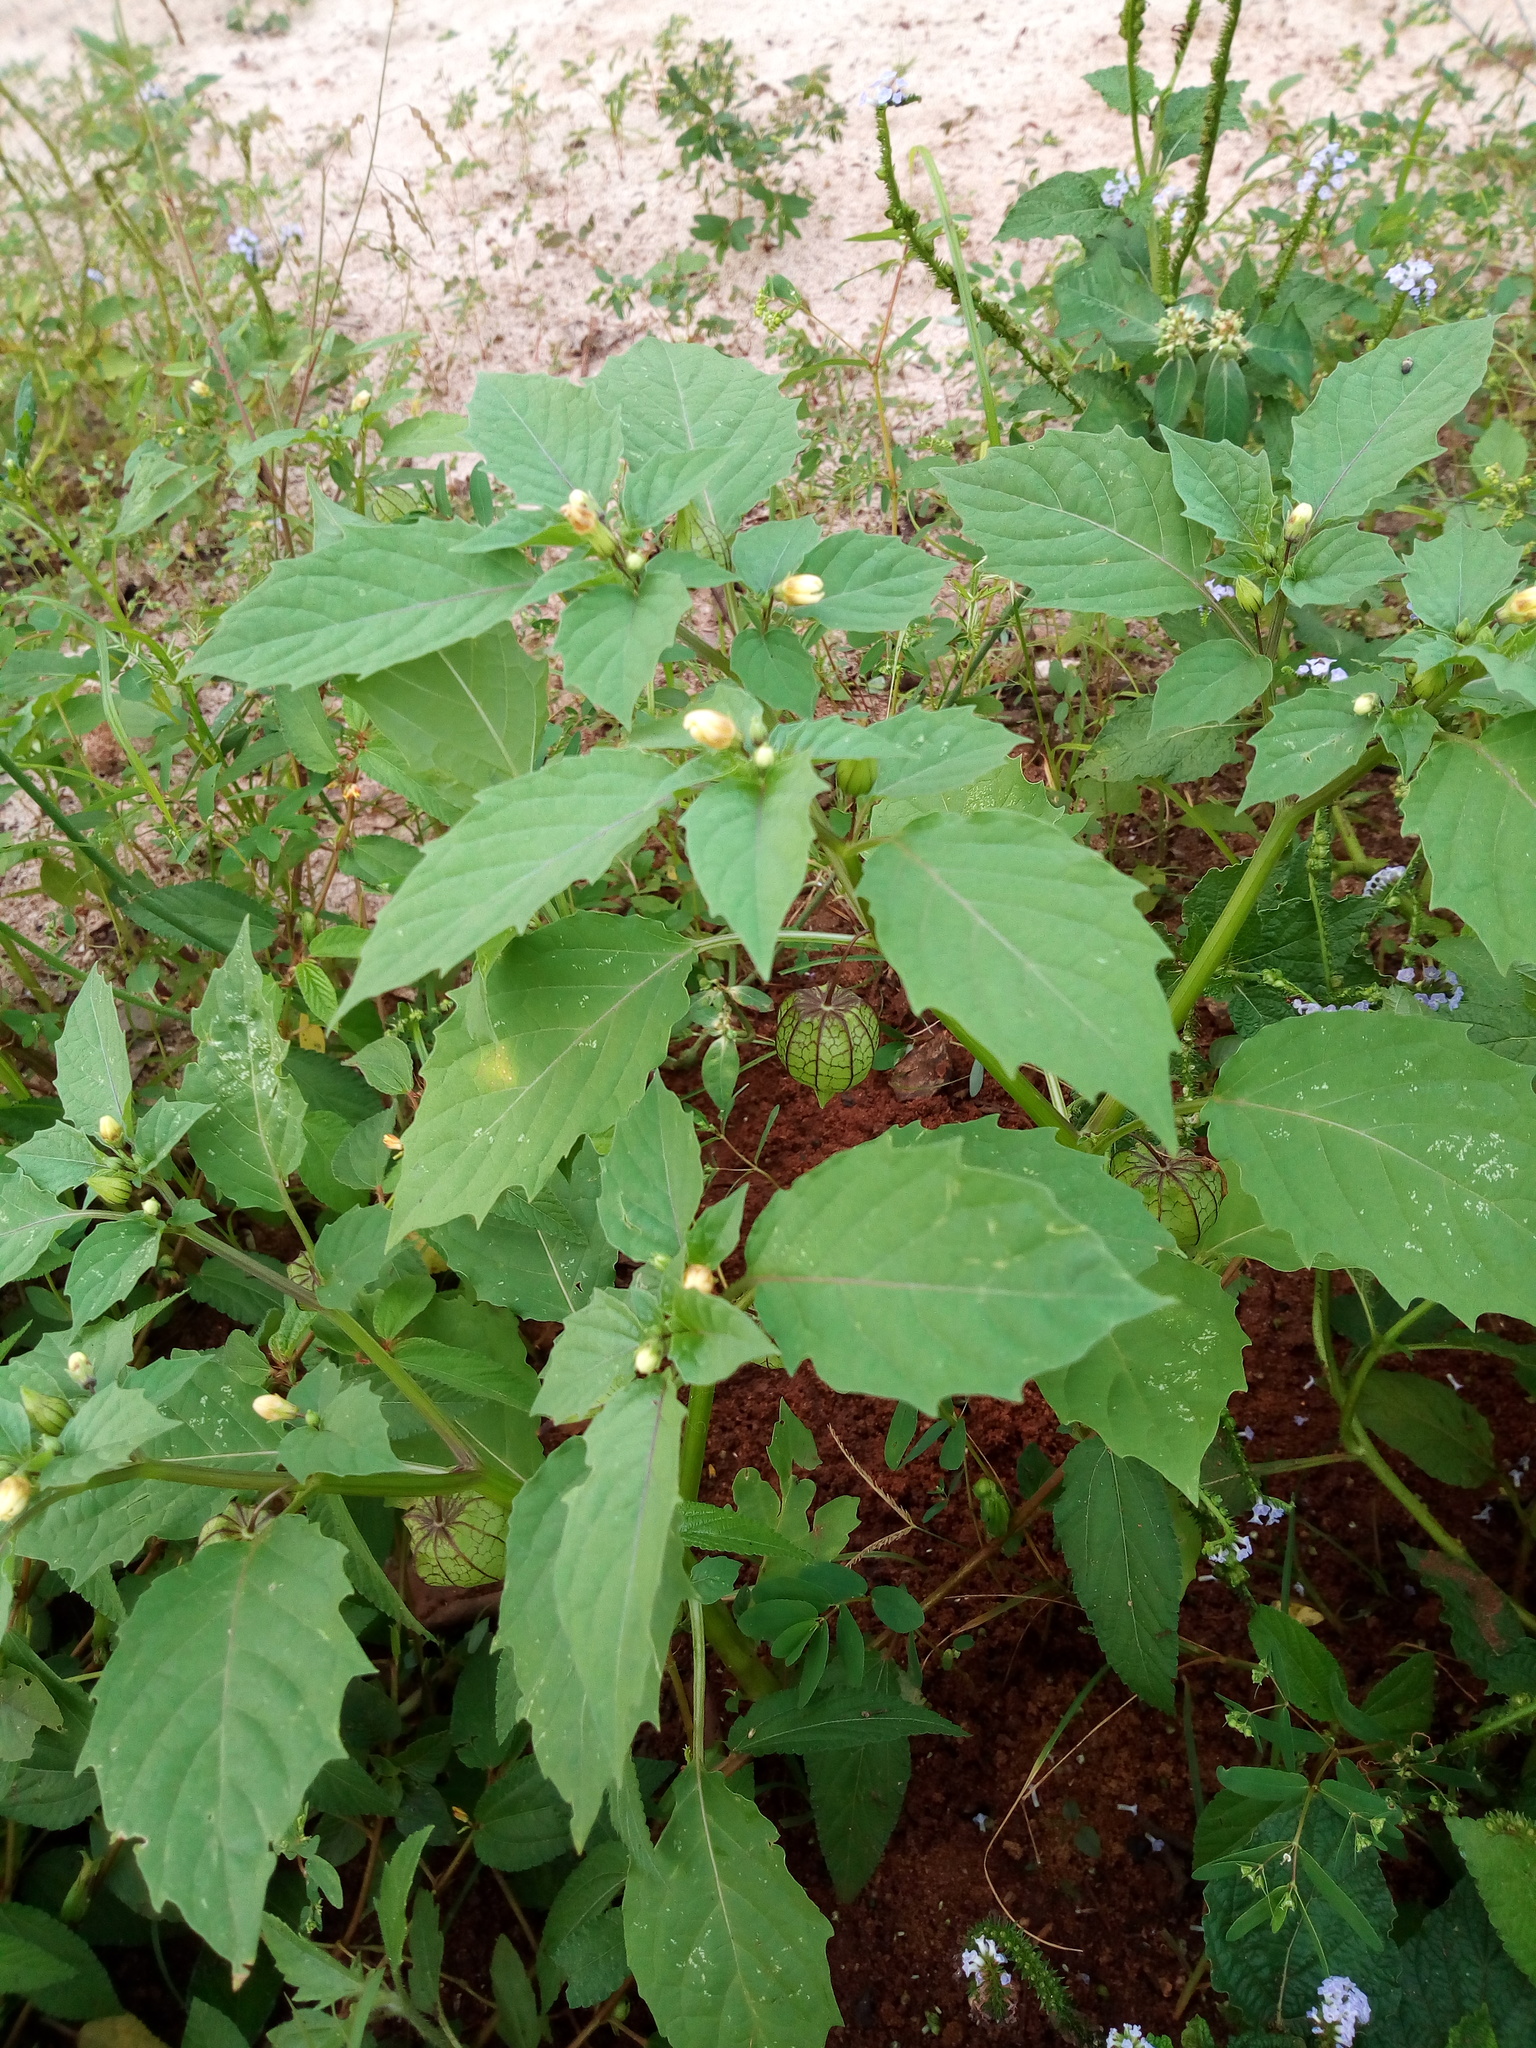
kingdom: Plantae
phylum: Tracheophyta
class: Magnoliopsida
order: Solanales
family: Solanaceae
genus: Physalis
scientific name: Physalis angulata
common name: Angular winter-cherry
